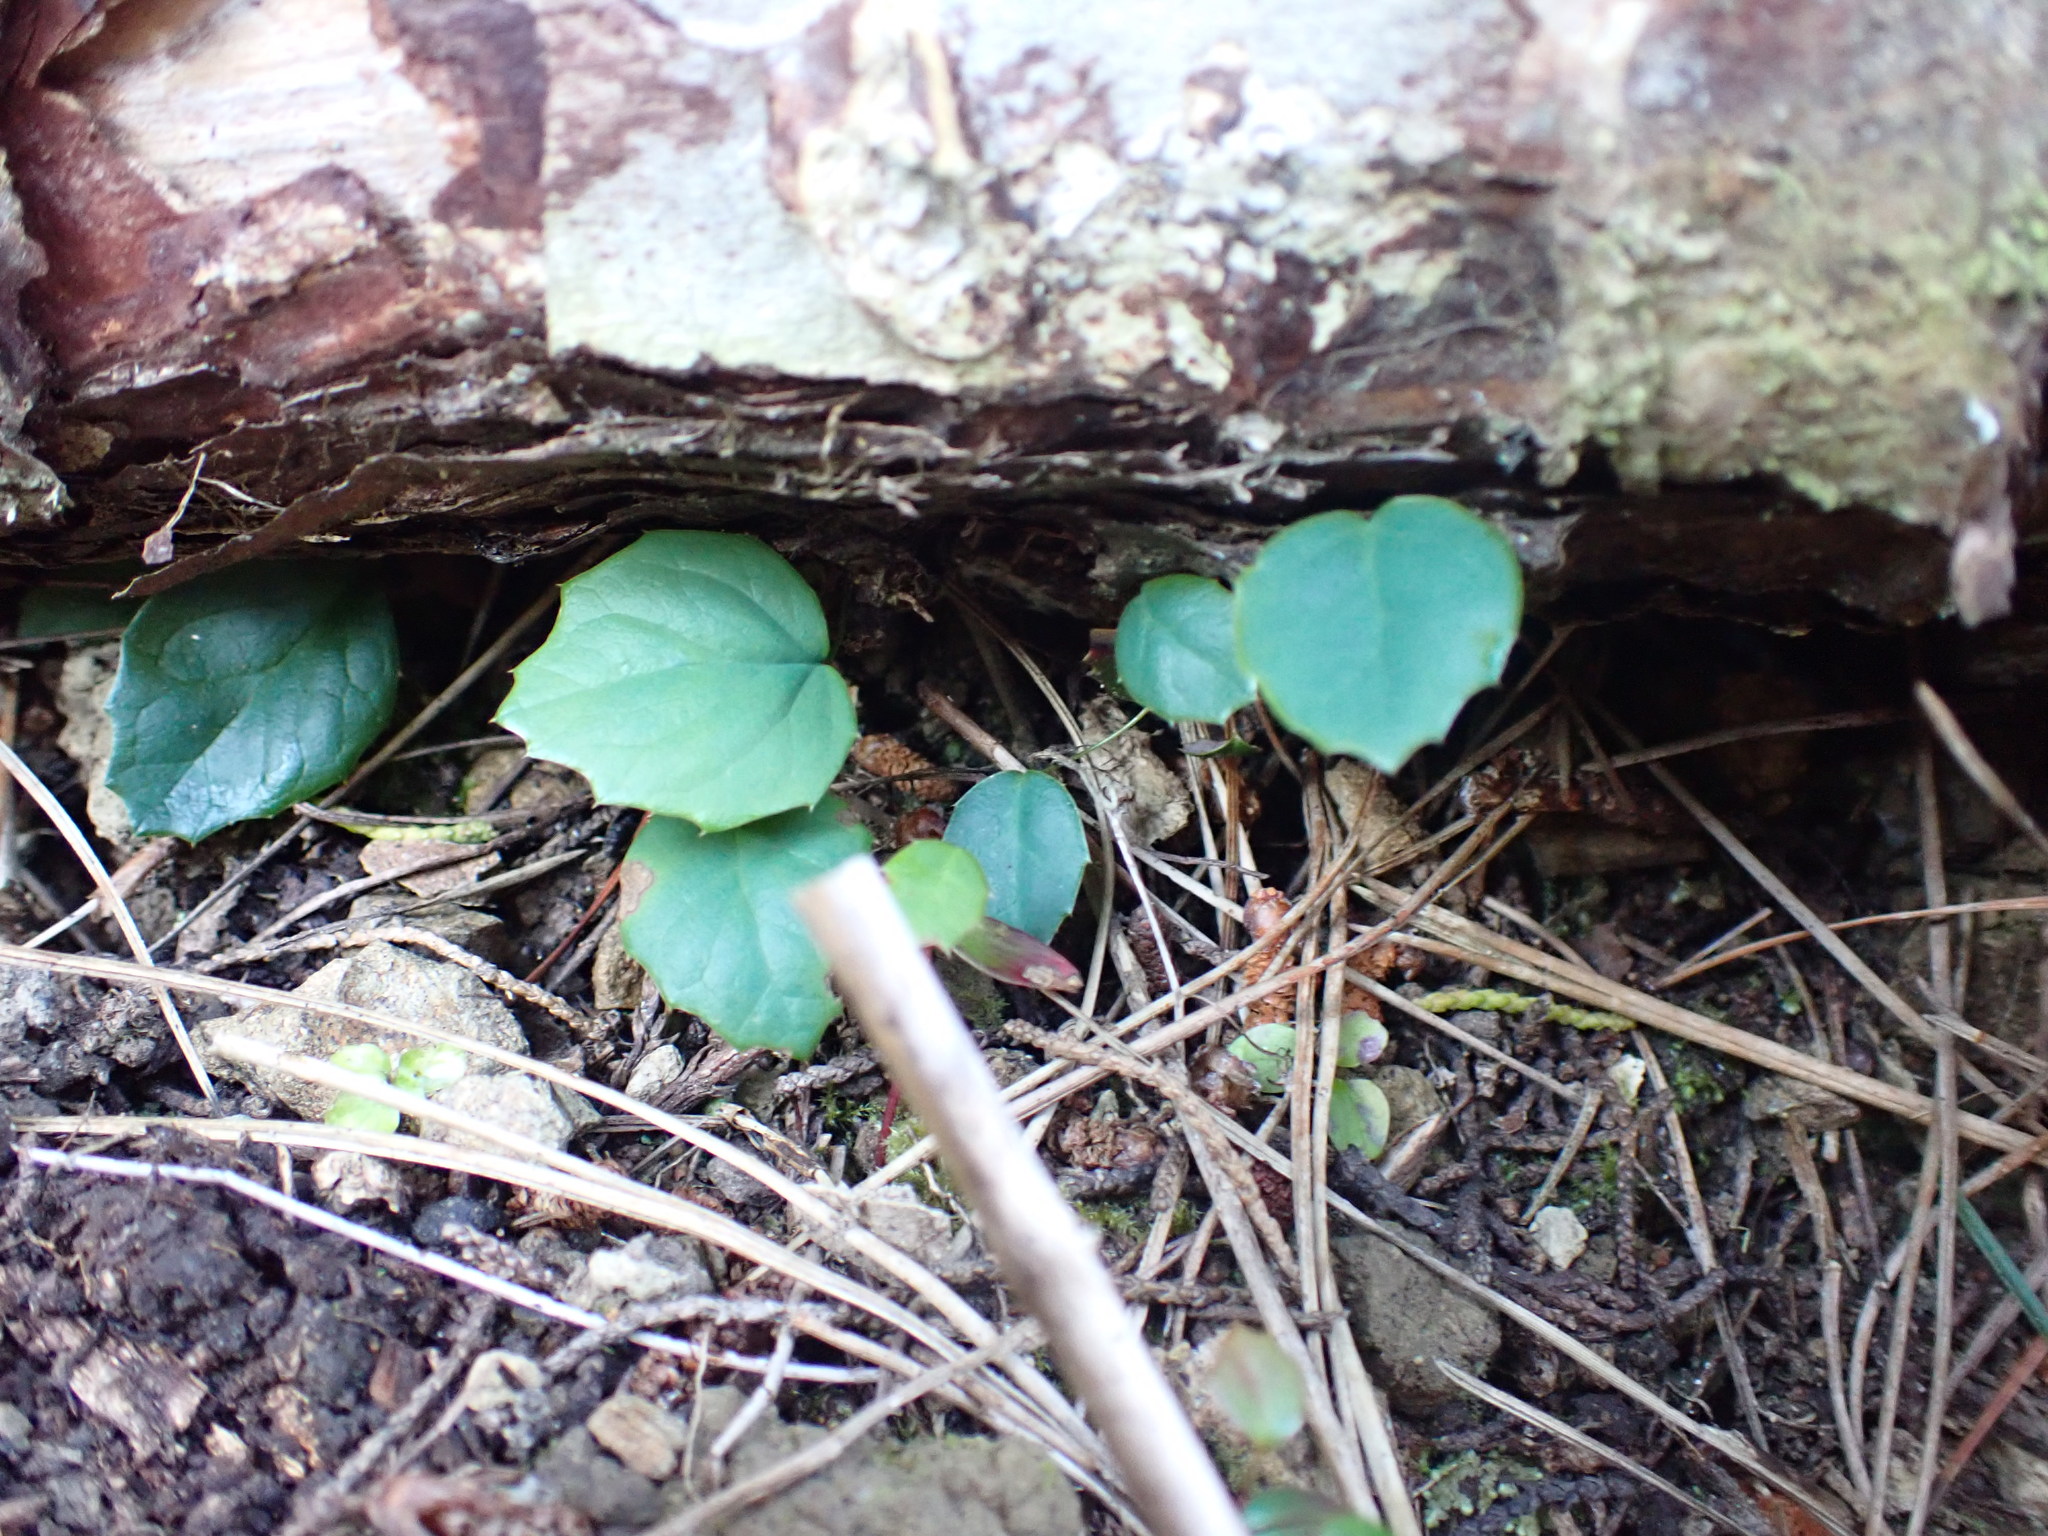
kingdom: Plantae
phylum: Tracheophyta
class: Magnoliopsida
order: Ranunculales
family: Berberidaceae
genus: Berberis
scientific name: Berberis darwinii
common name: Darwin's barberry
